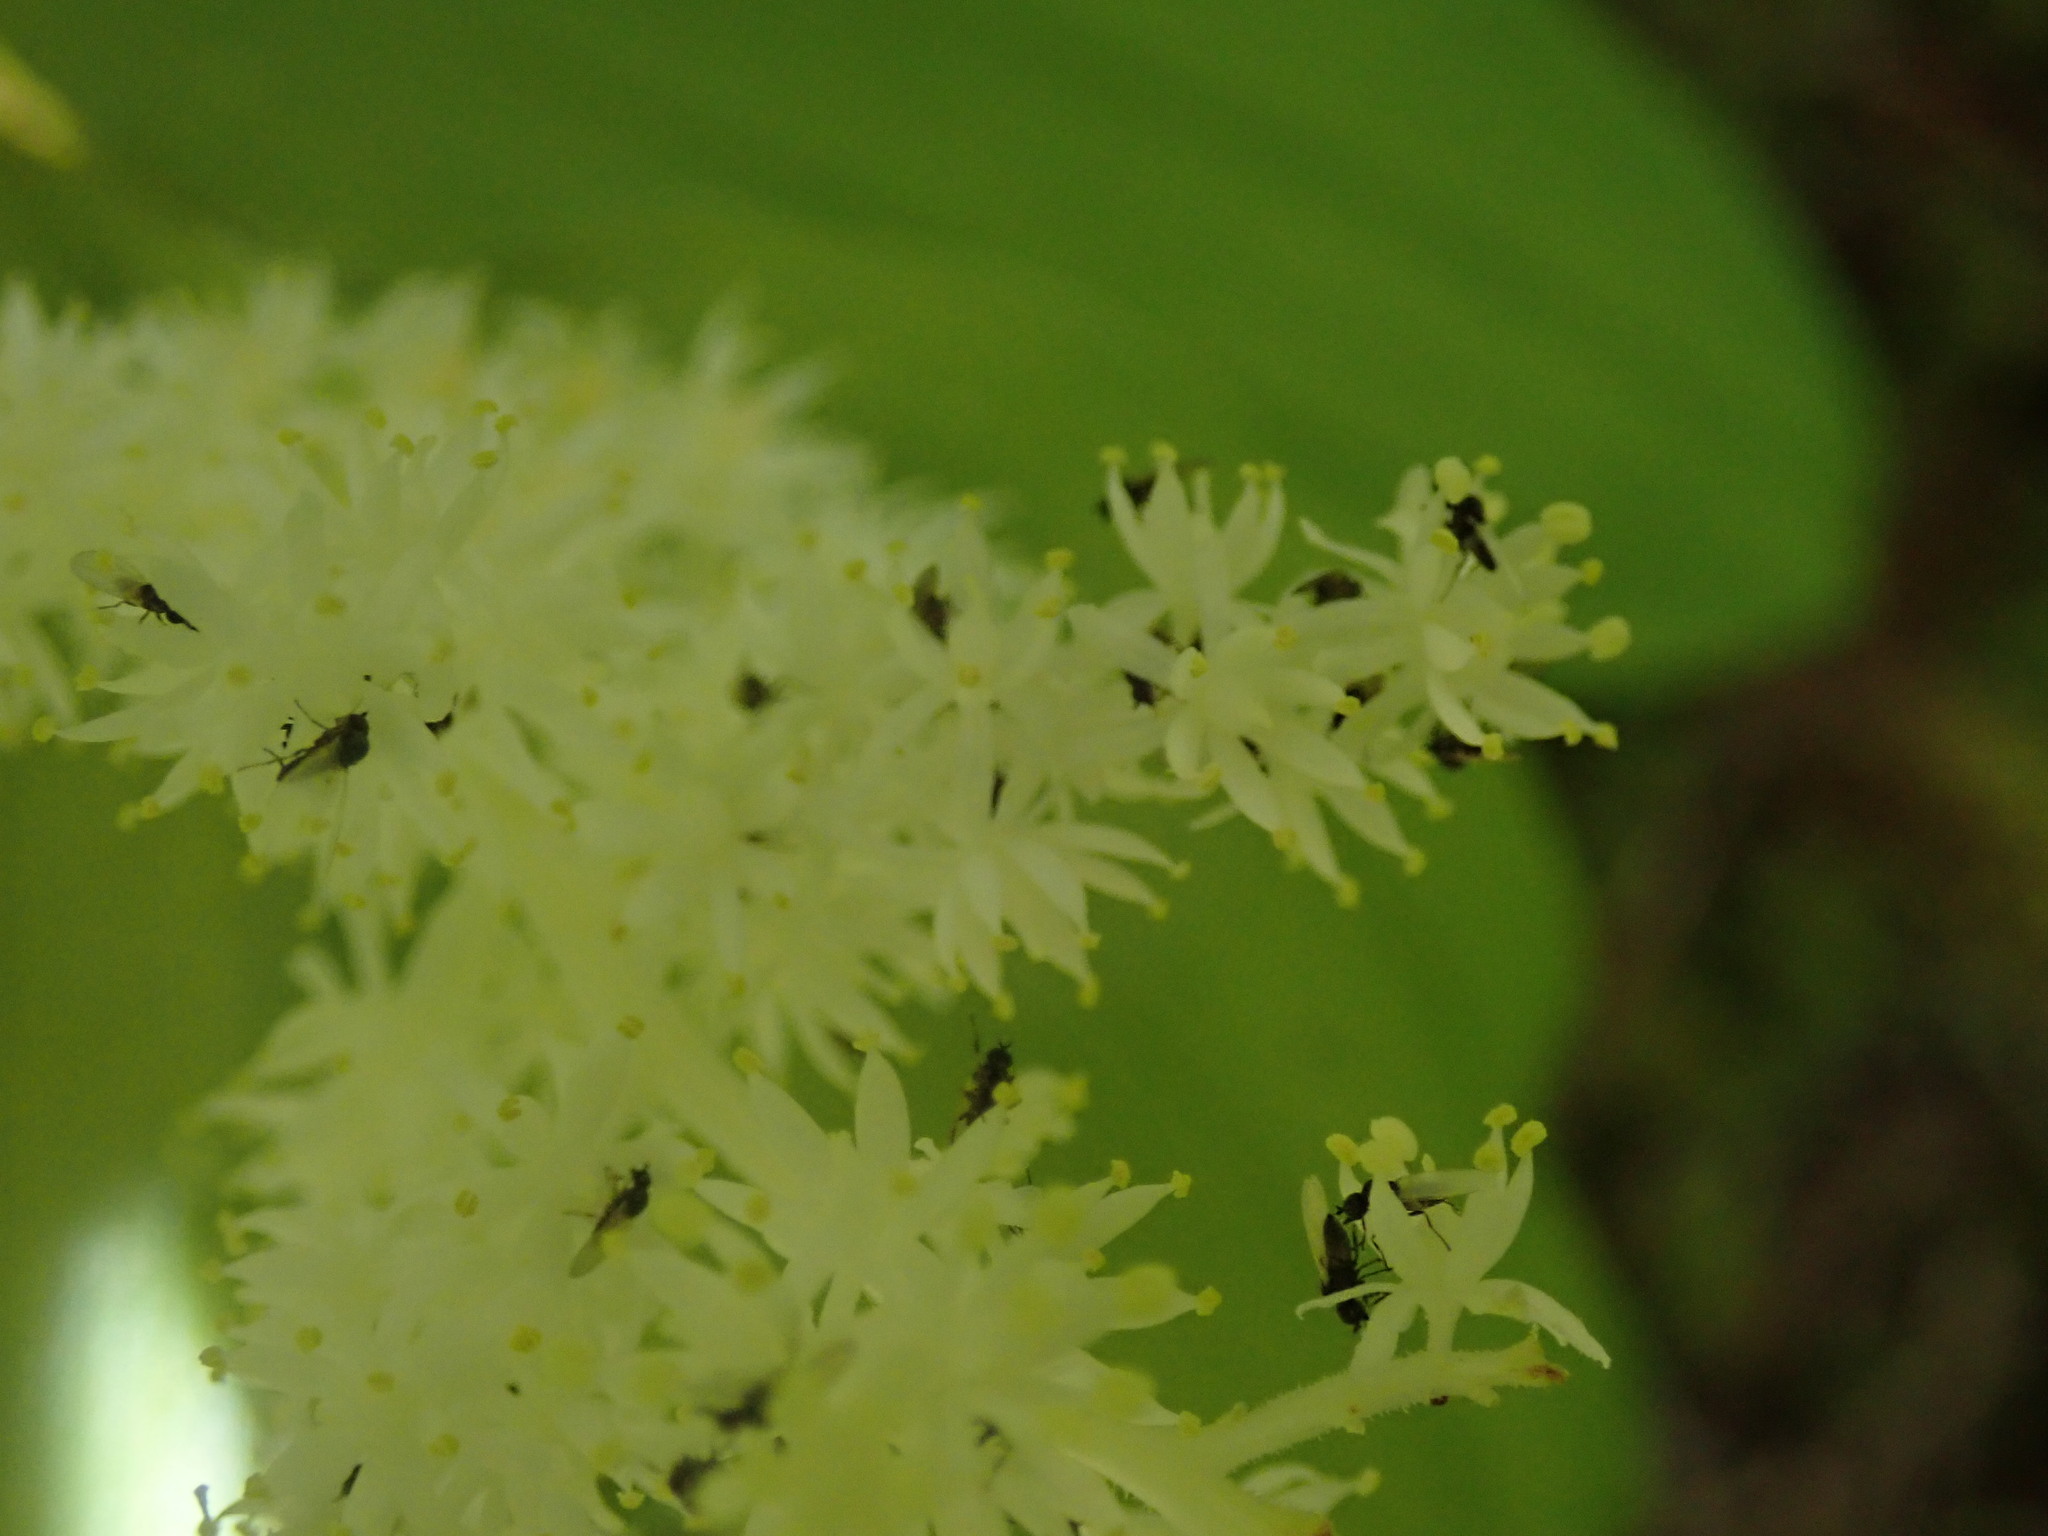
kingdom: Plantae
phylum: Tracheophyta
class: Liliopsida
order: Asparagales
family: Asparagaceae
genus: Maianthemum
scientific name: Maianthemum racemosum
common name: False spikenard
